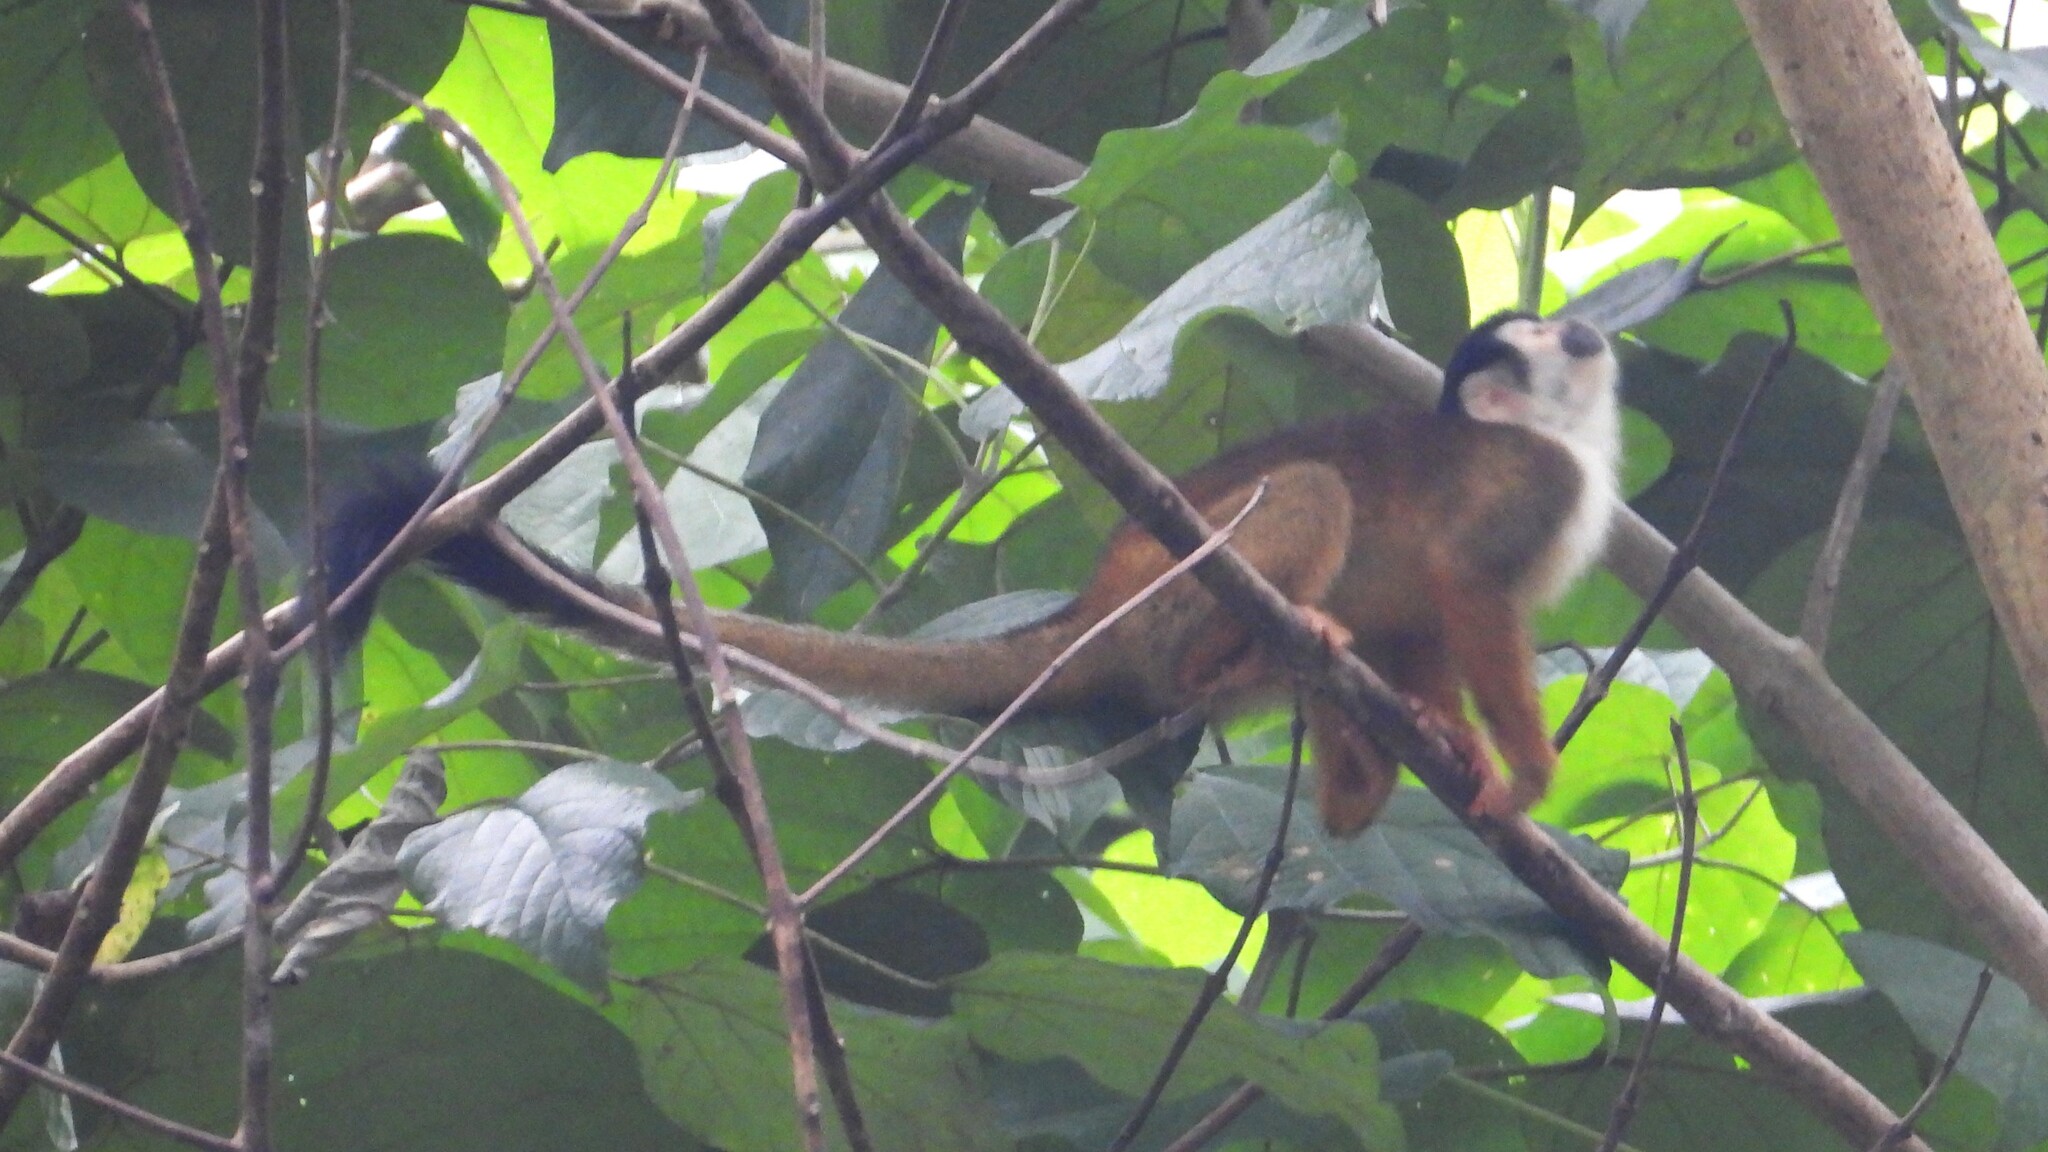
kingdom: Animalia
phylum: Chordata
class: Mammalia
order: Primates
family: Cebidae
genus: Saimiri
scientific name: Saimiri oerstedii
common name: Central american squirrel monkey
